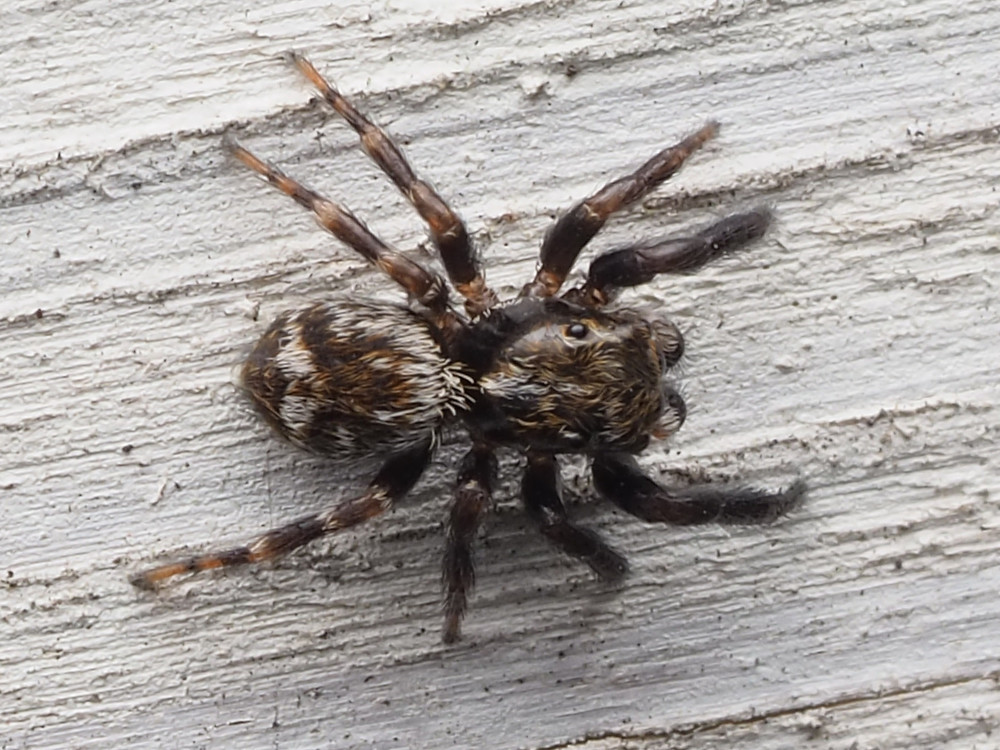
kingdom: Animalia
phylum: Arthropoda
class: Arachnida
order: Araneae
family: Salticidae
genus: Pseudeuophrys
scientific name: Pseudeuophrys erratica
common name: Jumping spider
